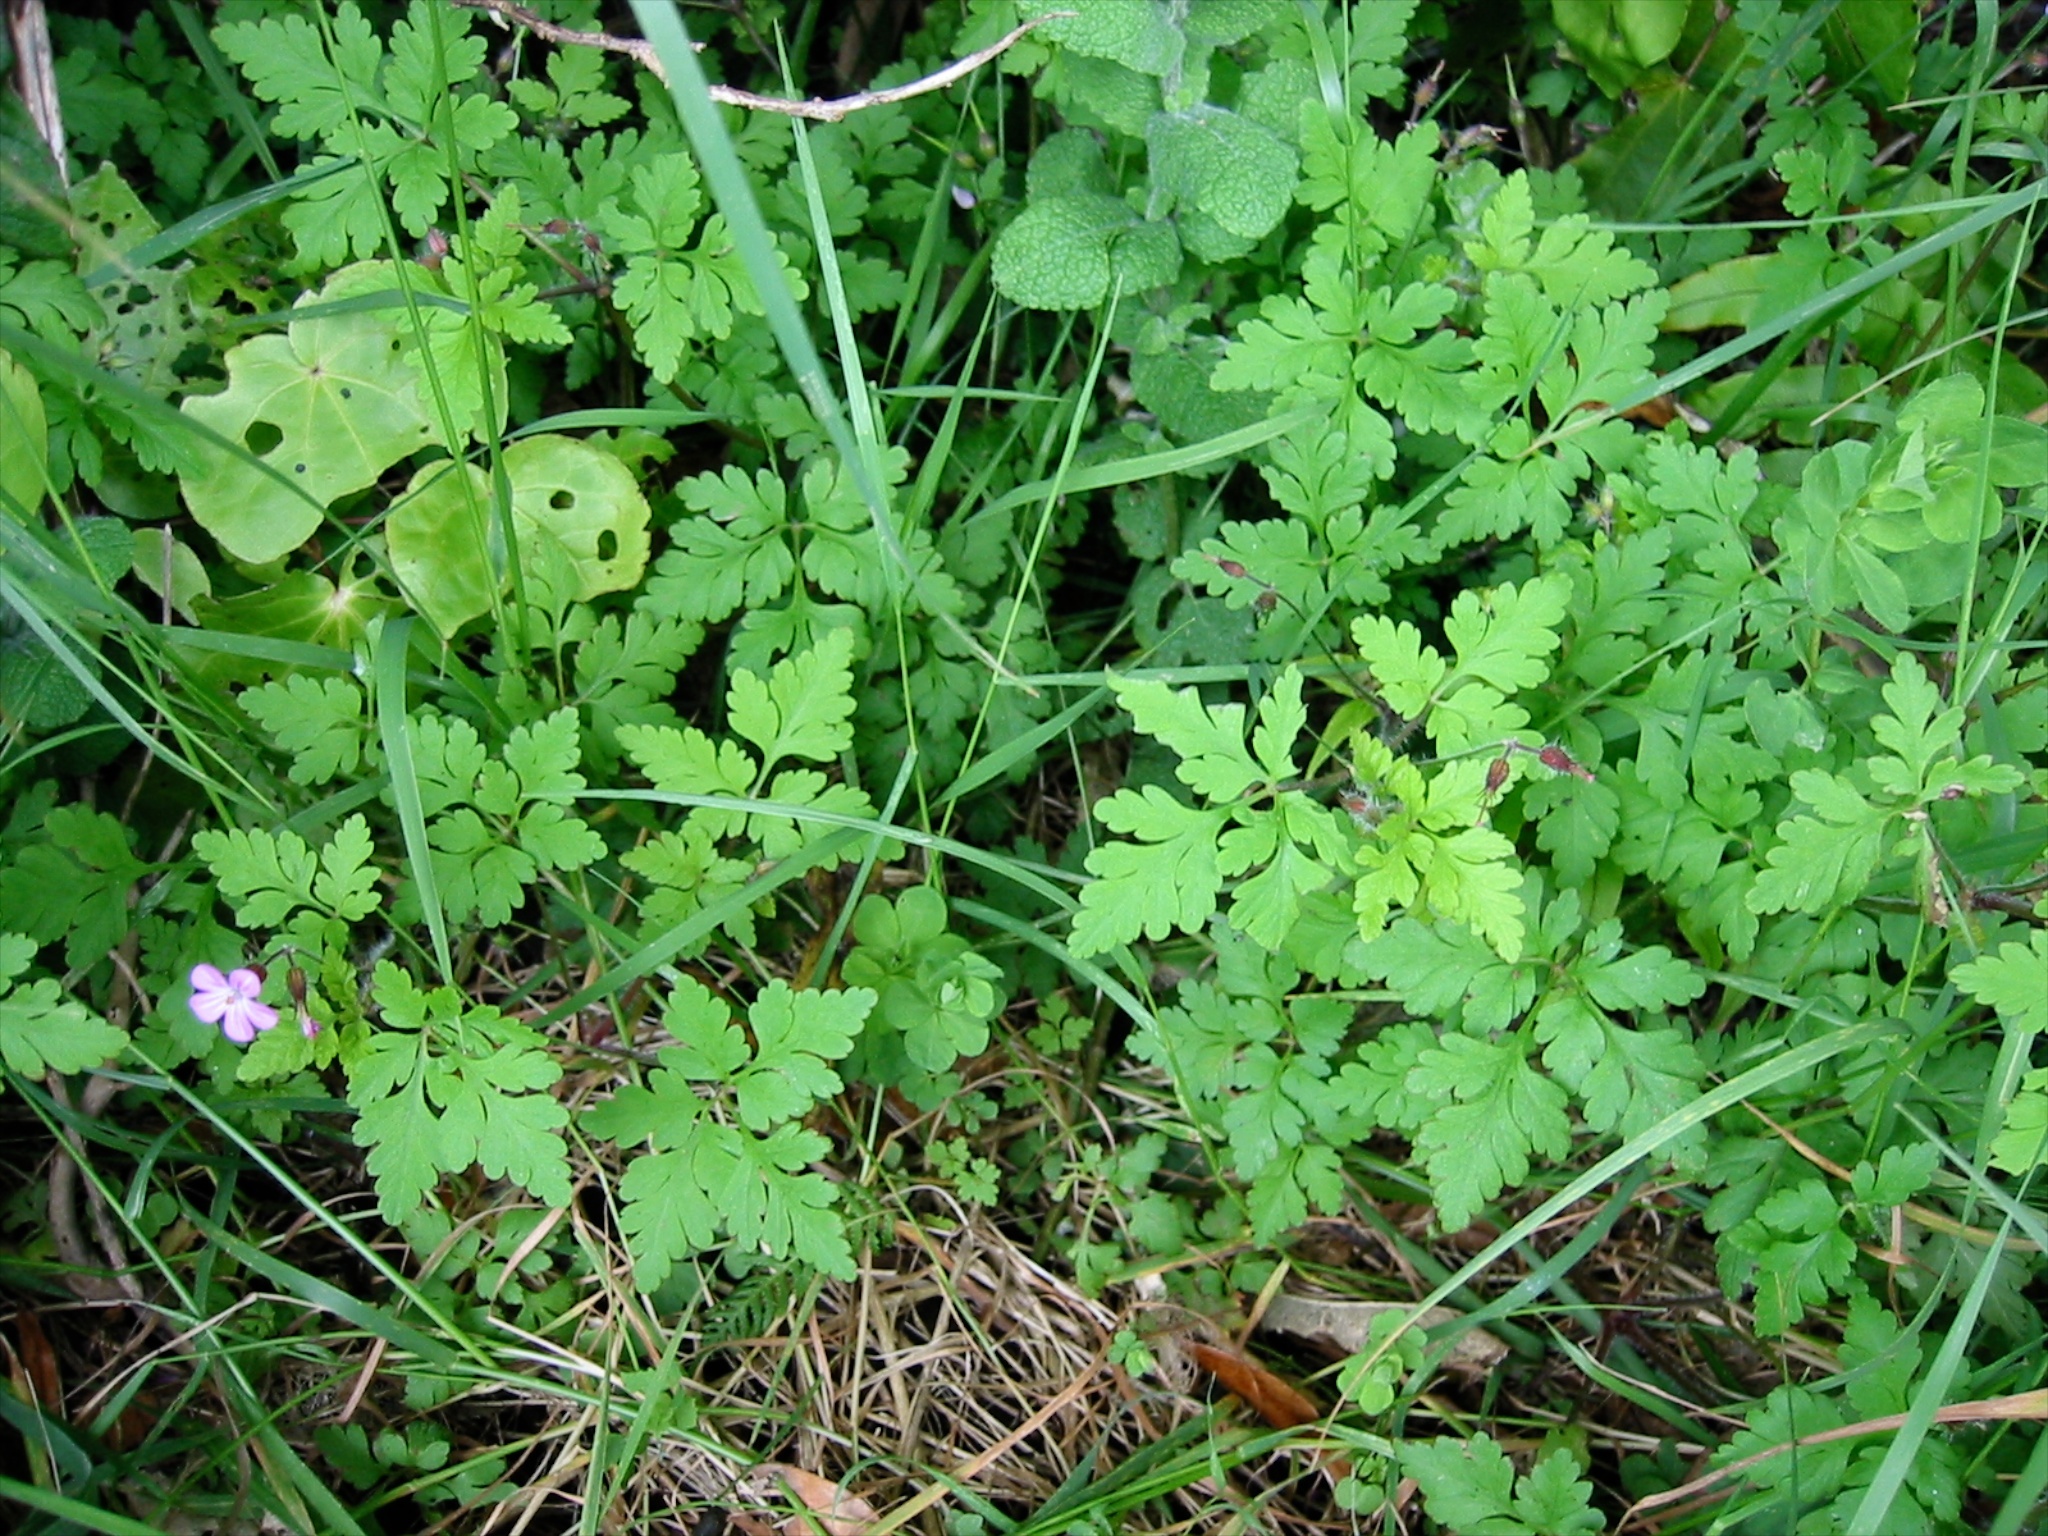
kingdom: Plantae
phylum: Tracheophyta
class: Magnoliopsida
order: Geraniales
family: Geraniaceae
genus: Geranium
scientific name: Geranium robertianum
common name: Herb-robert
